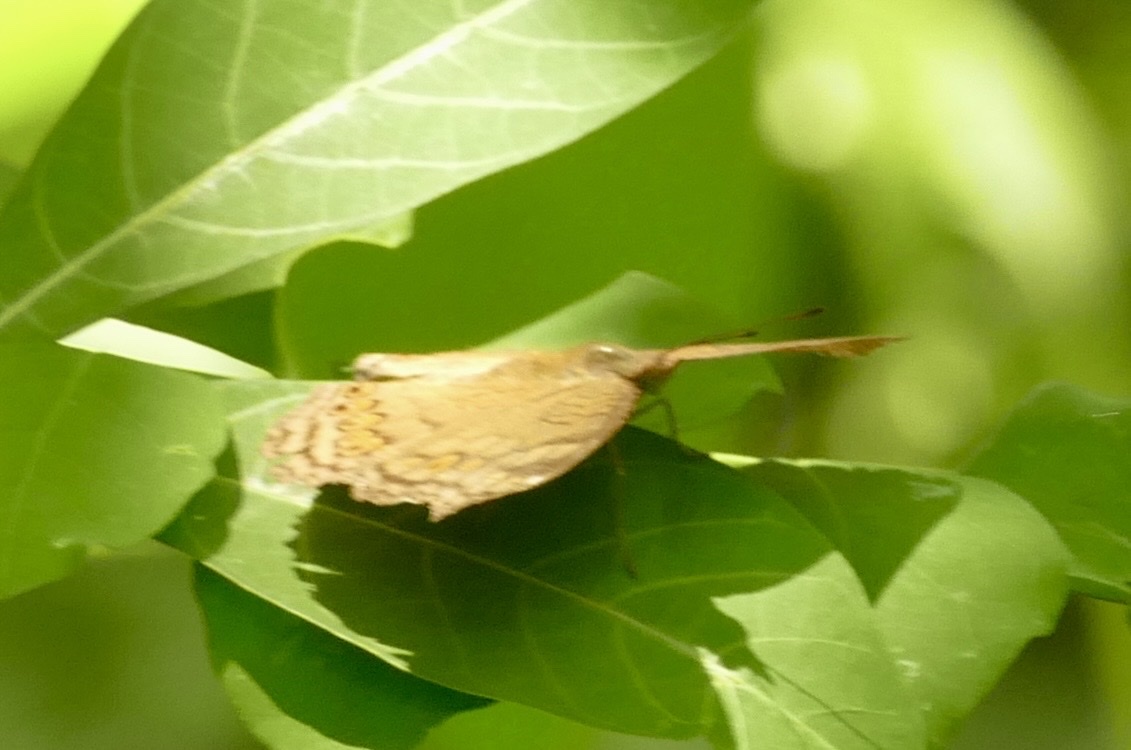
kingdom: Animalia
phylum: Arthropoda
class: Insecta
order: Lepidoptera
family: Nymphalidae
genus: Junonia
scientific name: Junonia hedonia
